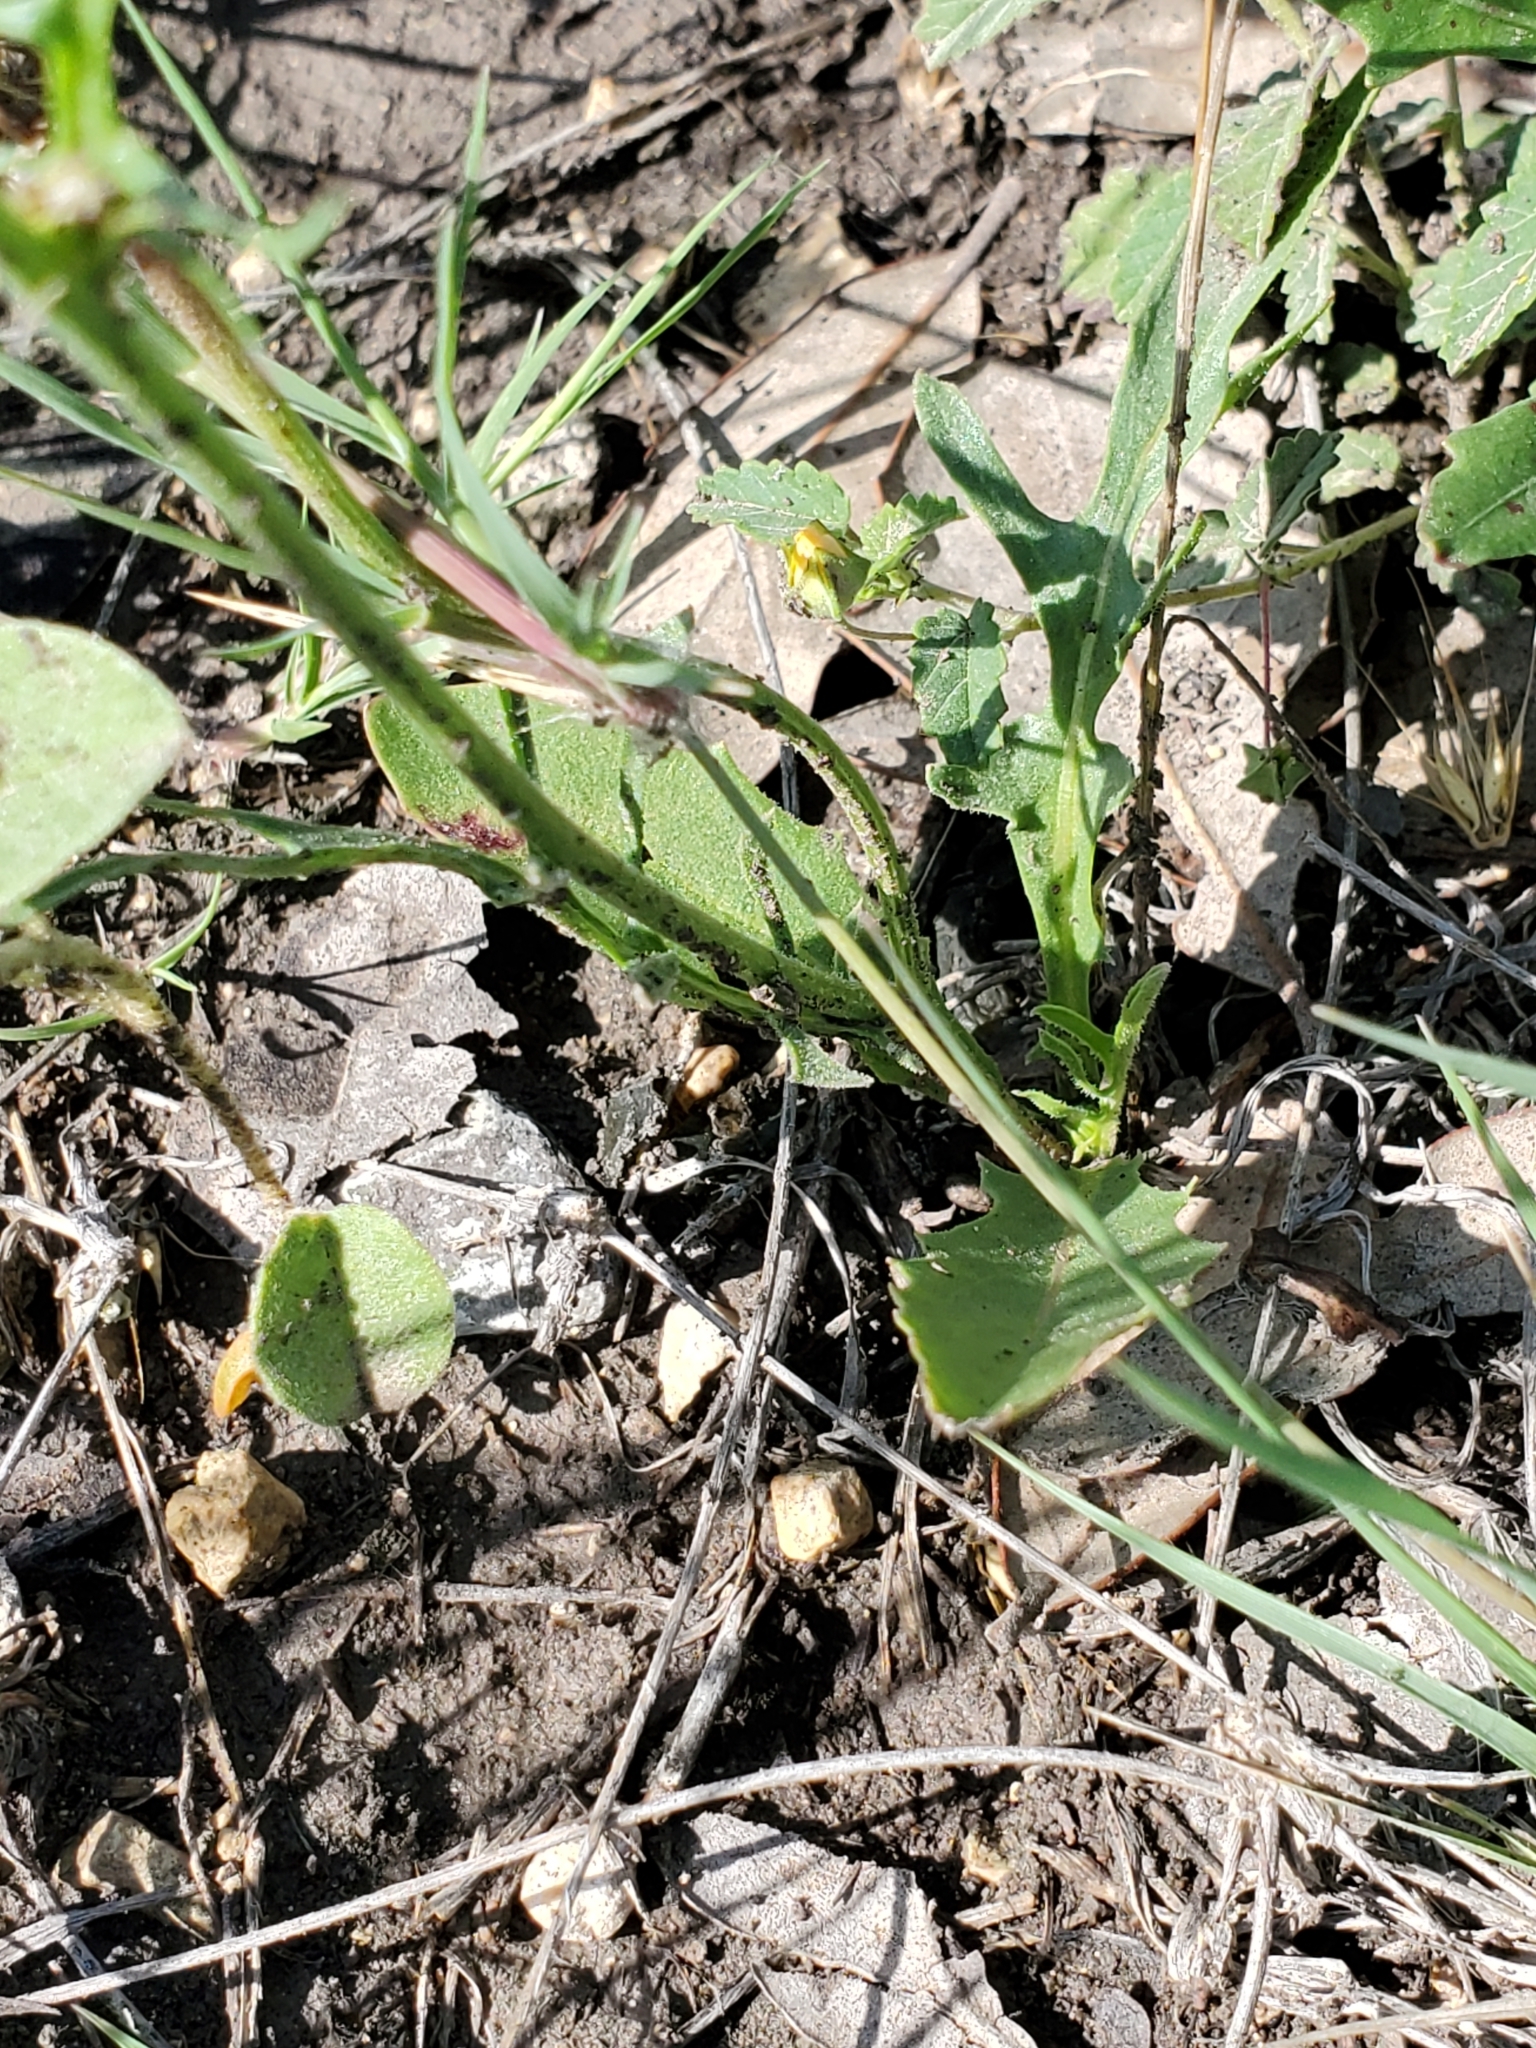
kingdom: Plantae
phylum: Tracheophyta
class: Magnoliopsida
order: Asterales
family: Asteraceae
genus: Pyrrhopappus
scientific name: Pyrrhopappus pauciflorus
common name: Texas false dandelion
